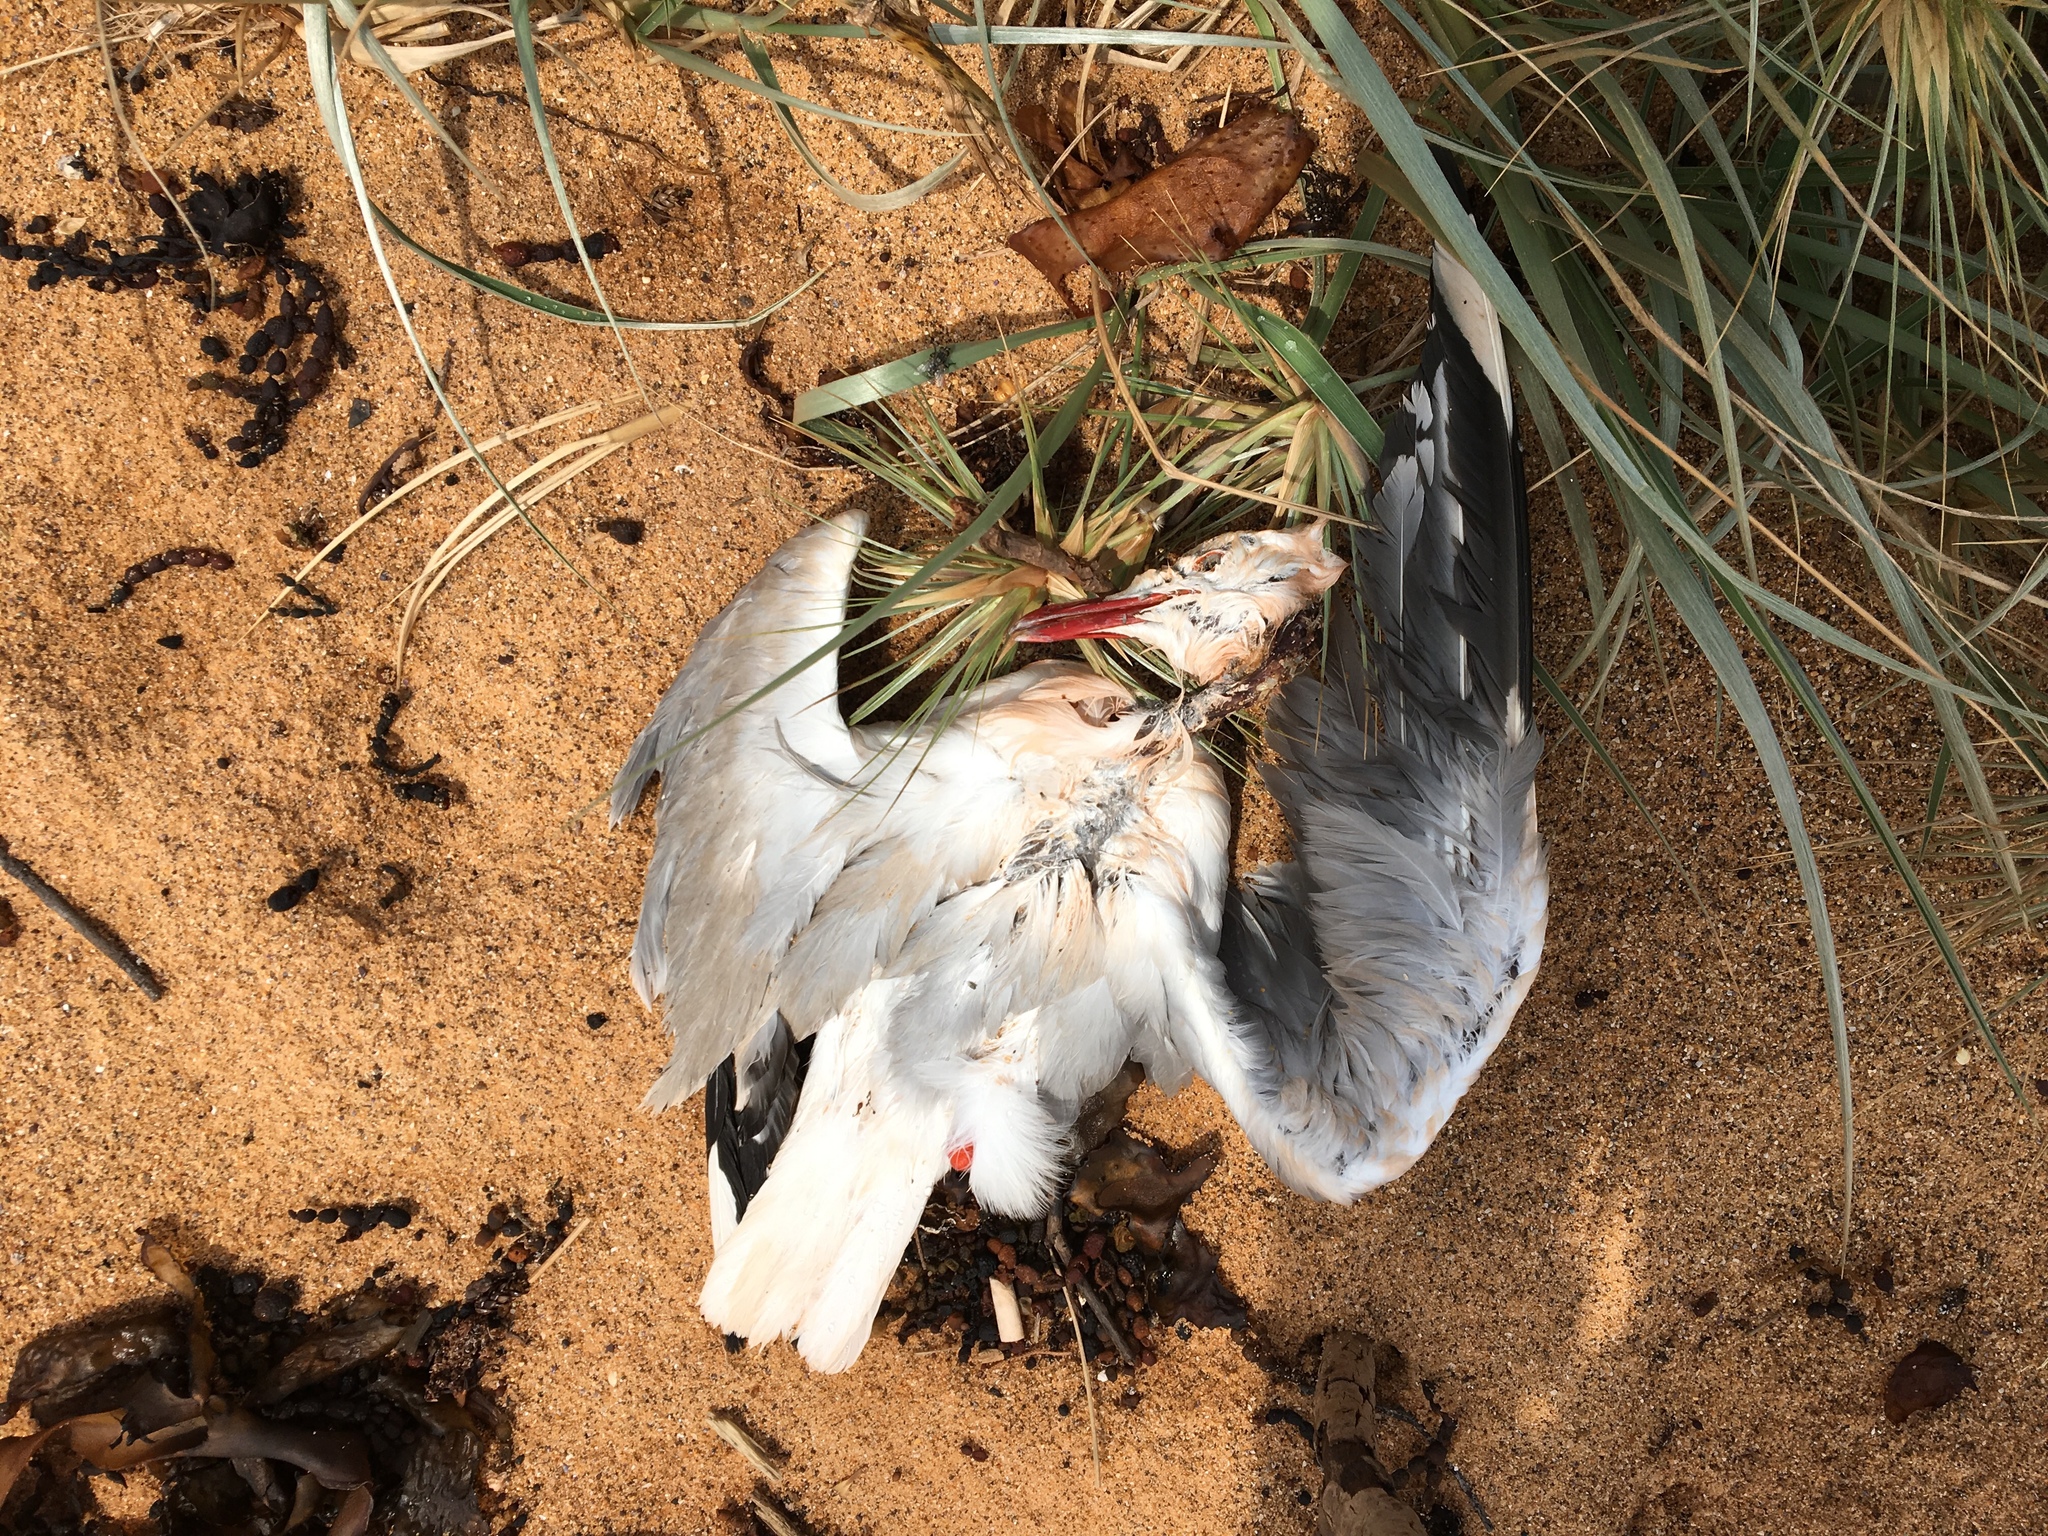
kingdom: Animalia
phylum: Chordata
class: Aves
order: Charadriiformes
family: Laridae
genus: Chroicocephalus
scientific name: Chroicocephalus novaehollandiae
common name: Silver gull
